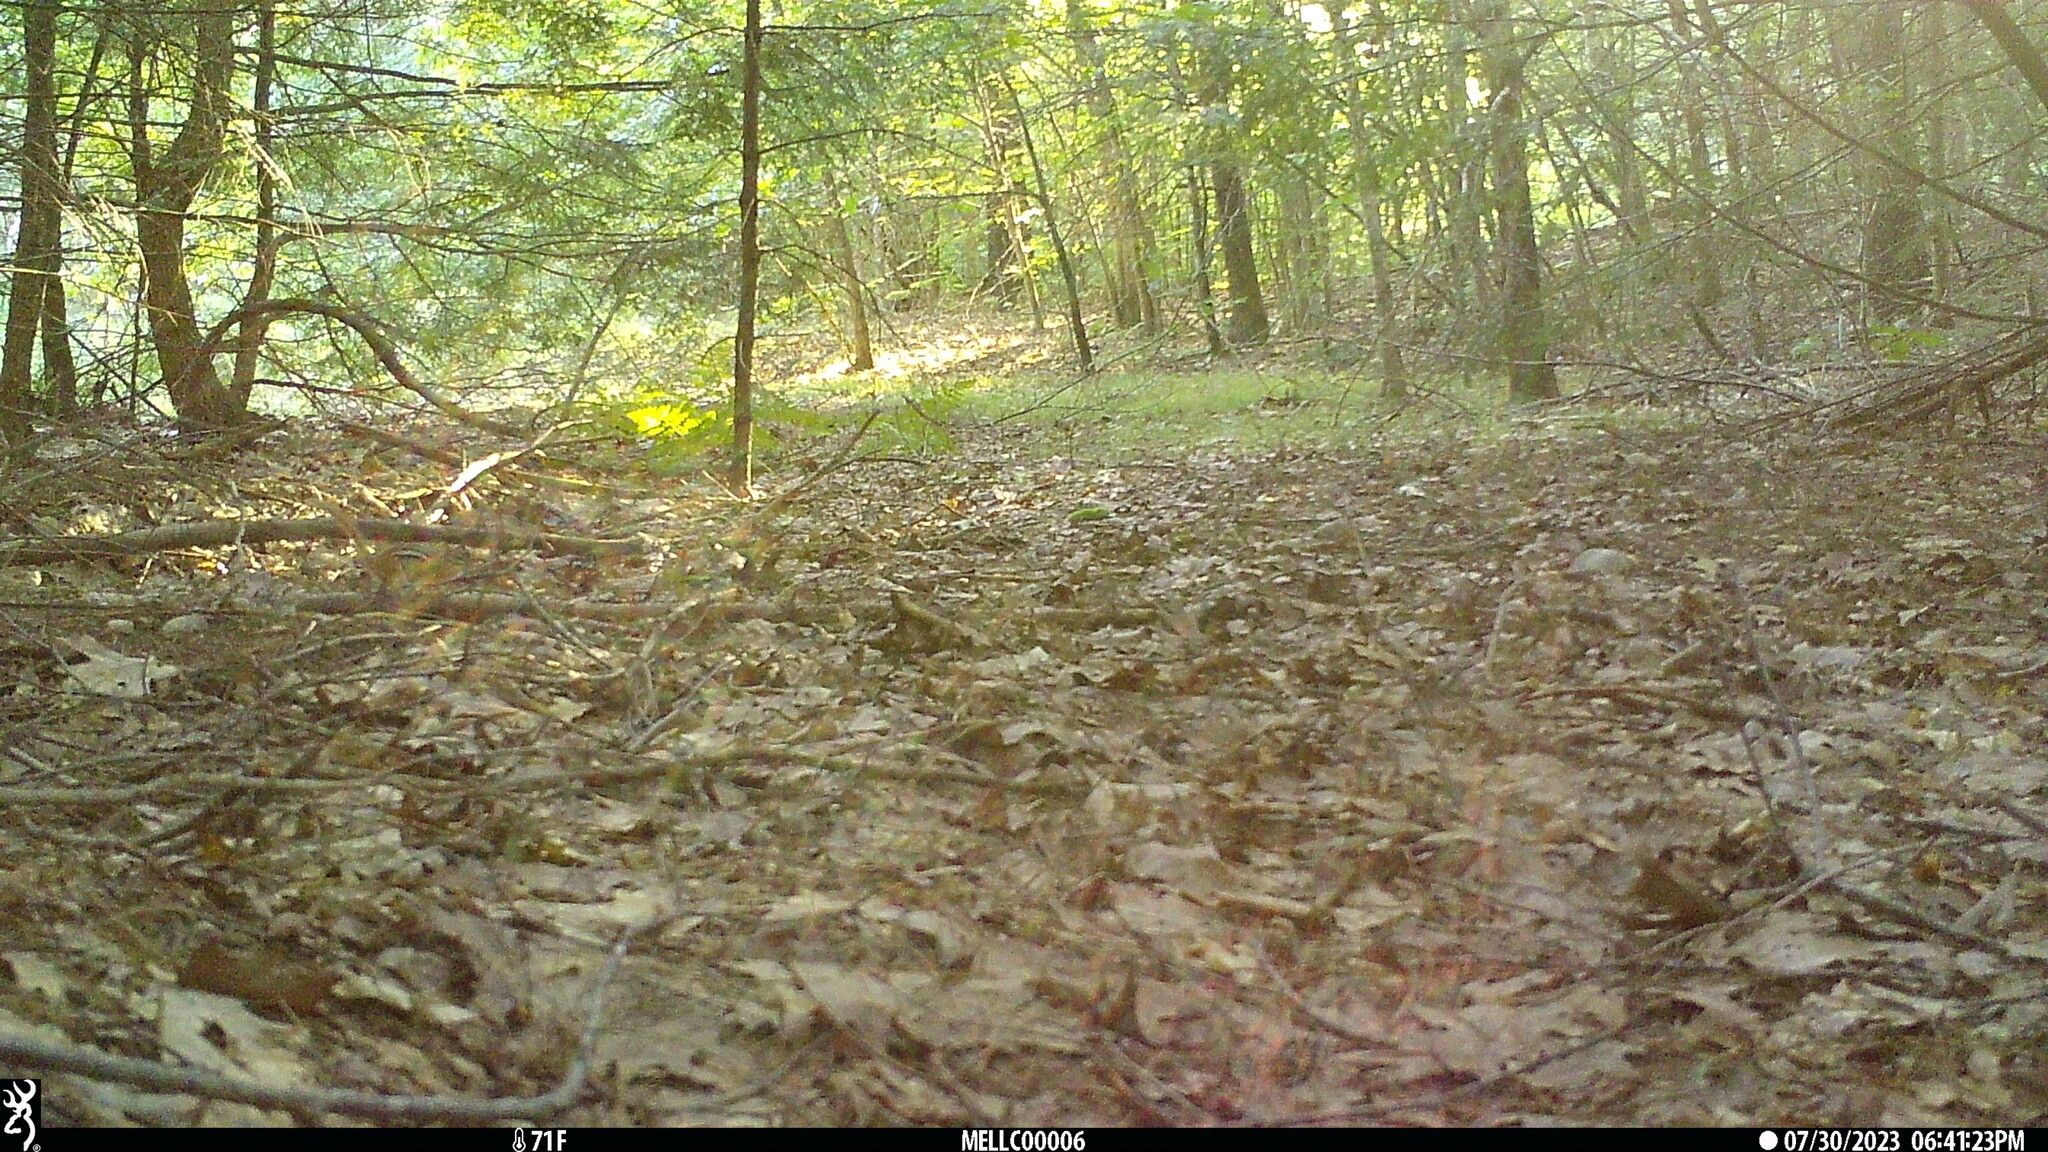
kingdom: Animalia
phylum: Chordata
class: Mammalia
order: Rodentia
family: Sciuridae
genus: Tamias
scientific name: Tamias striatus
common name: Eastern chipmunk
